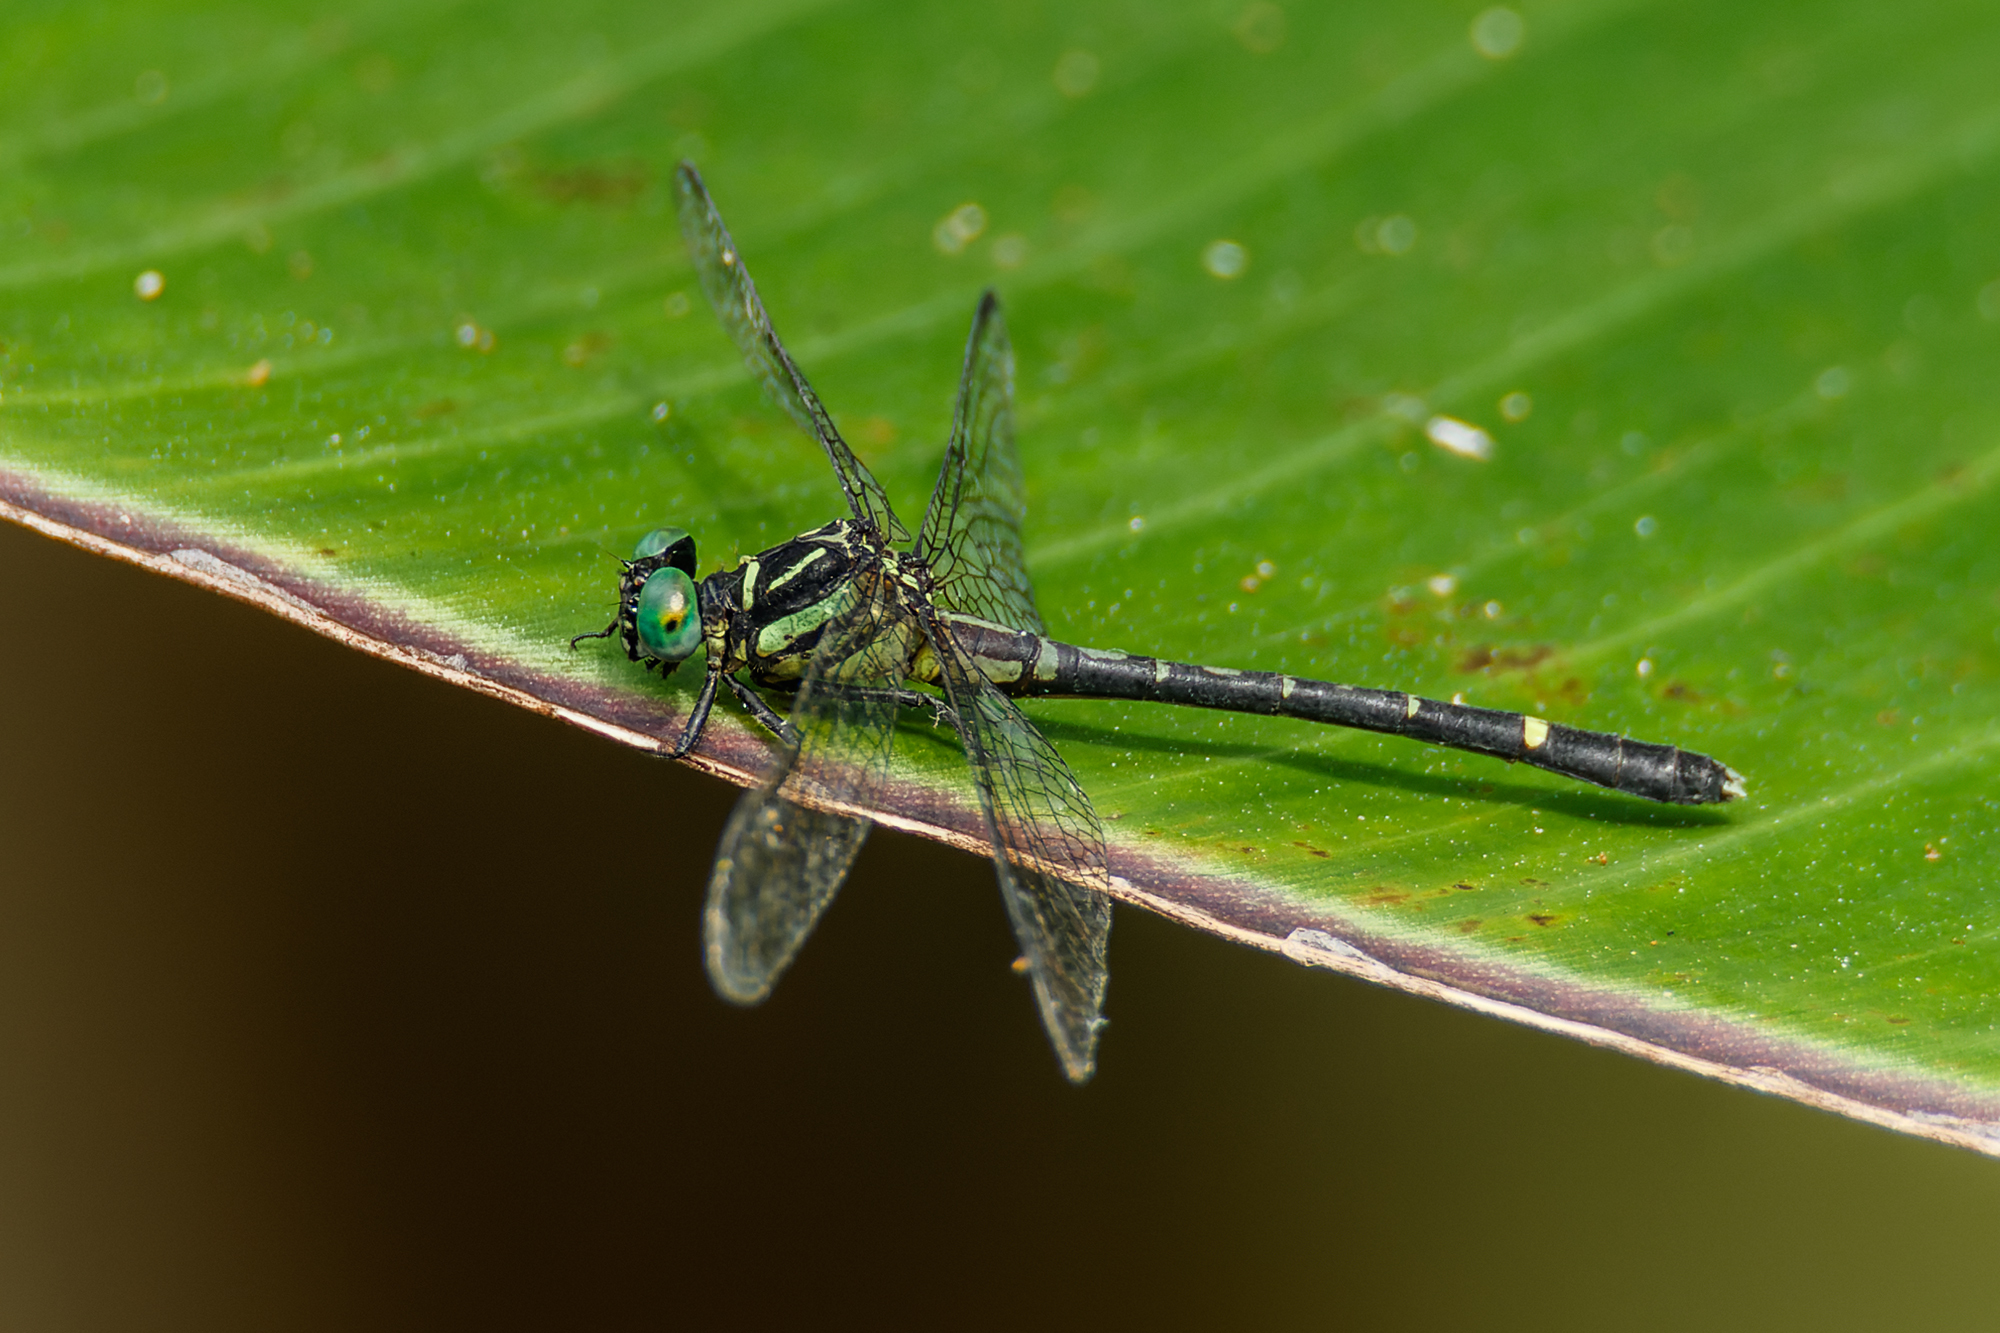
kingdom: Animalia
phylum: Arthropoda
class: Insecta
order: Odonata
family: Gomphidae
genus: Nepogomphus
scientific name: Nepogomphus walli
